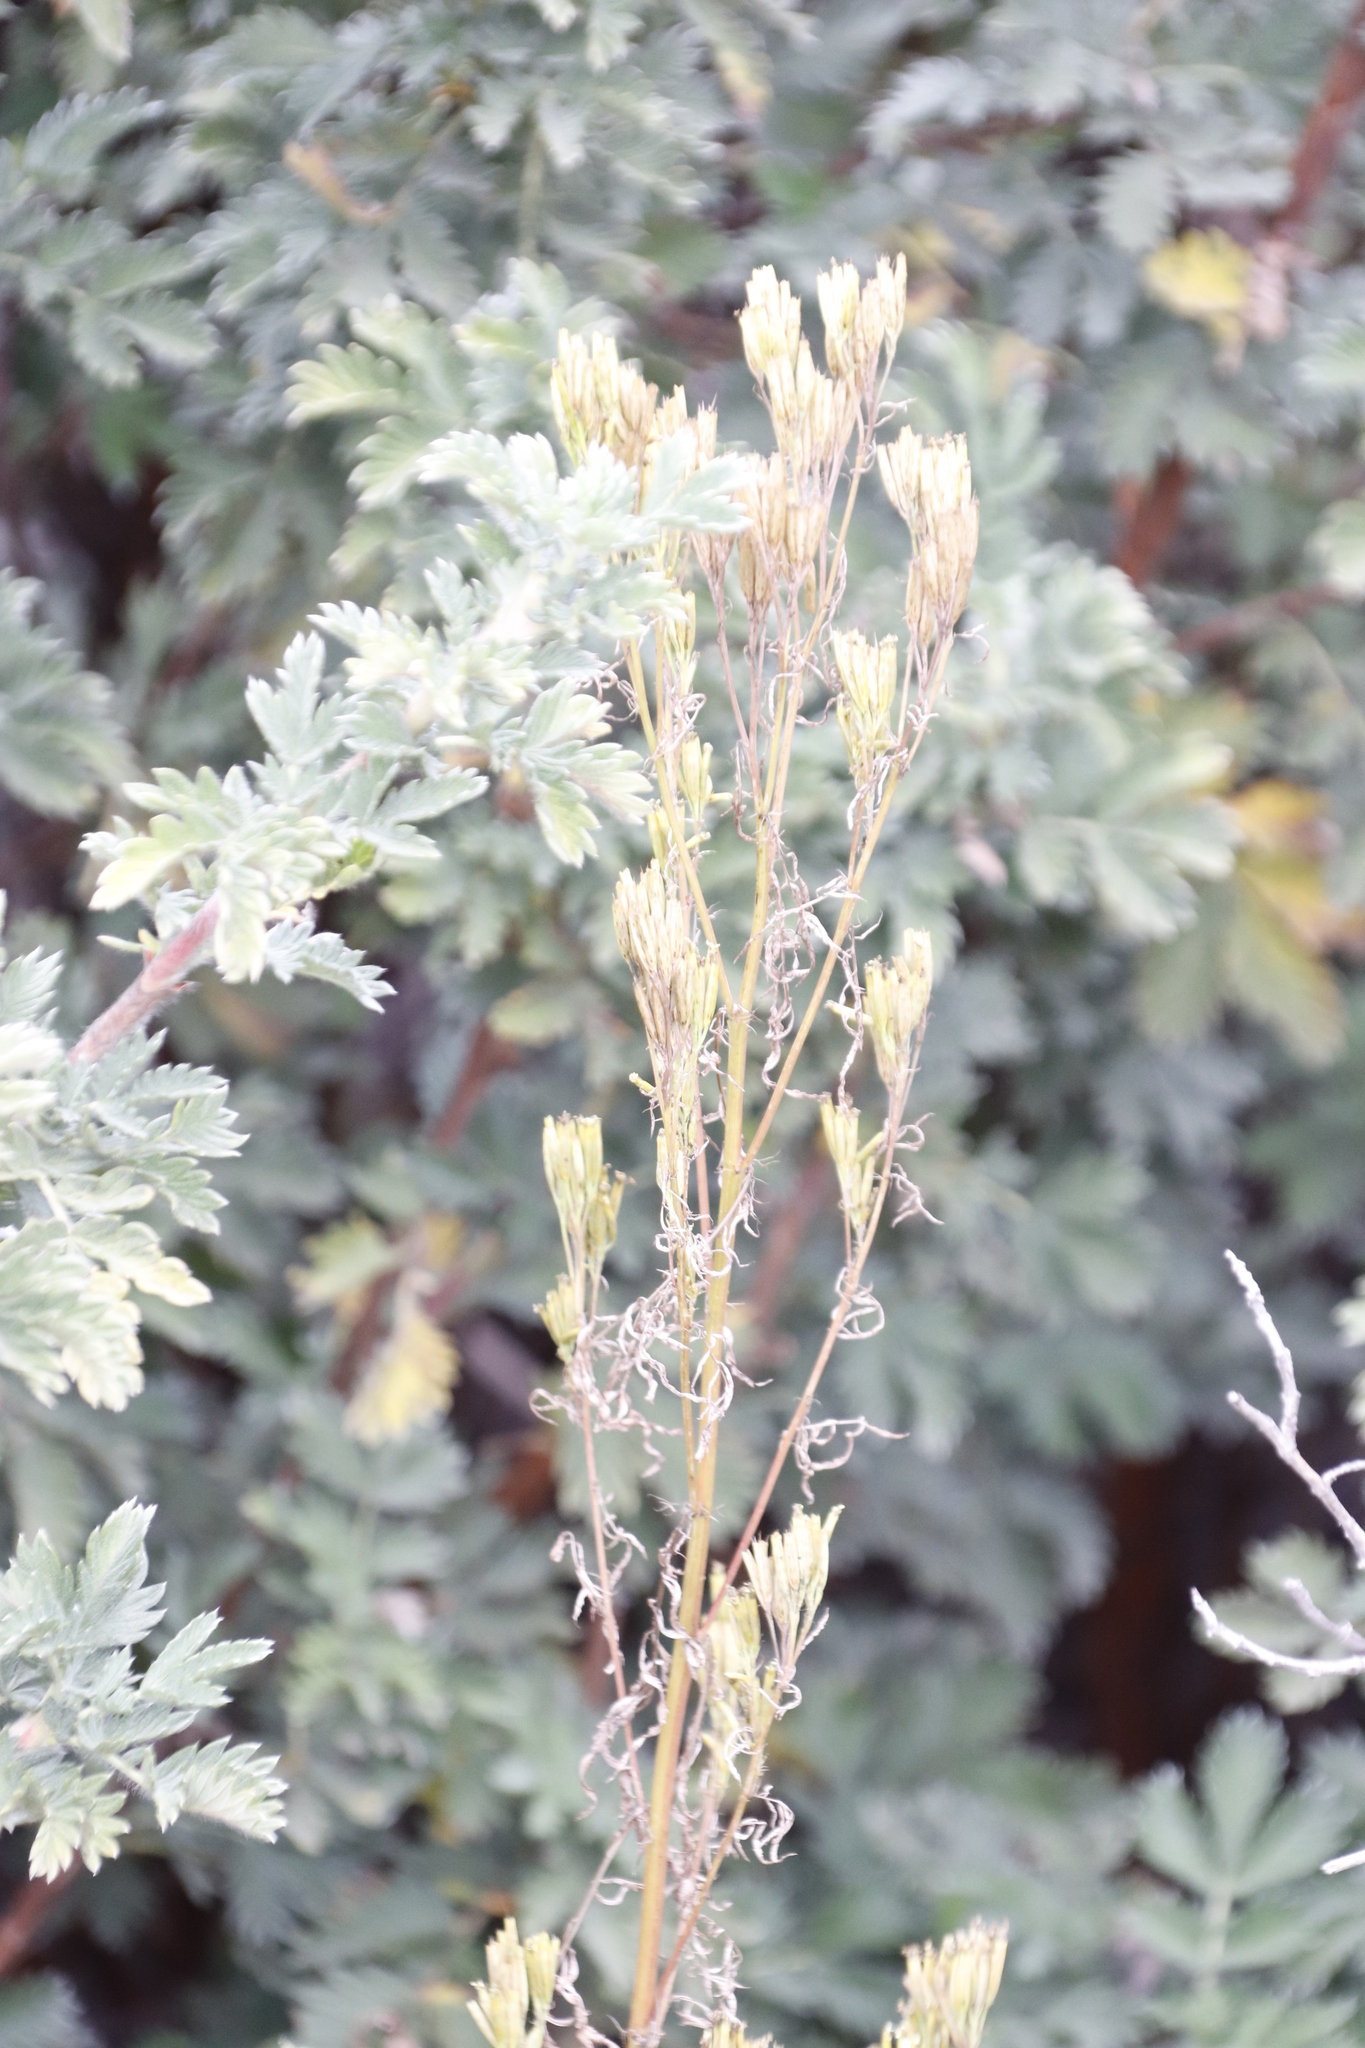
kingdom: Plantae
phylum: Tracheophyta
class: Magnoliopsida
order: Asterales
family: Asteraceae
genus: Tagetes
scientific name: Tagetes minuta
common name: Muster john henry
